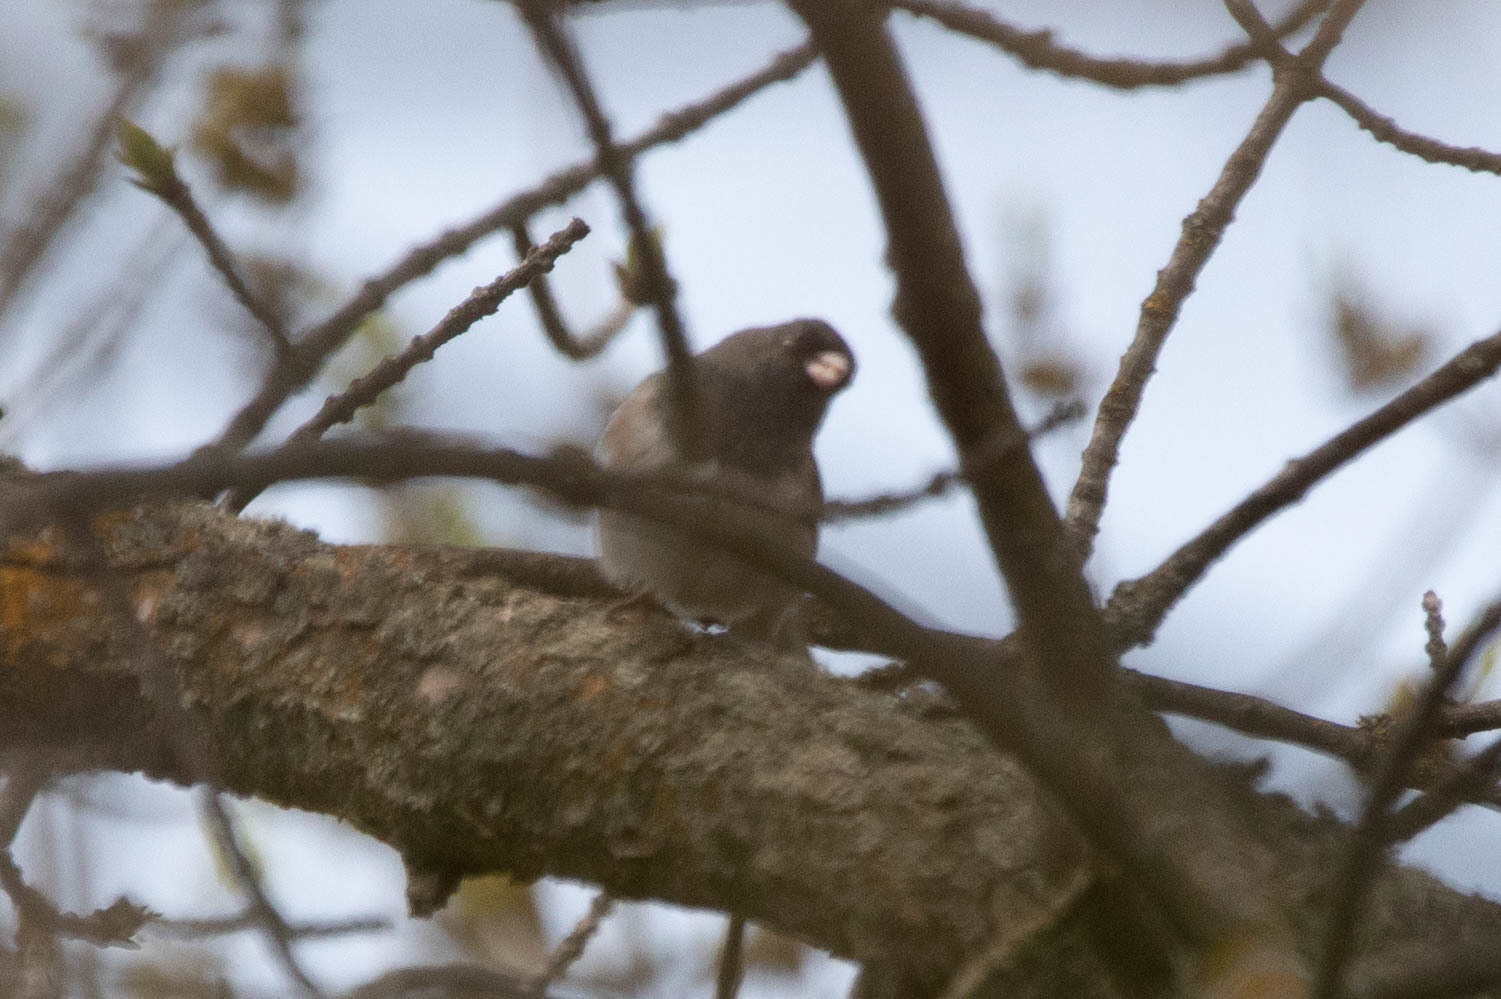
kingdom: Animalia
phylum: Chordata
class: Aves
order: Passeriformes
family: Passerellidae
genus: Junco
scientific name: Junco hyemalis
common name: Dark-eyed junco
